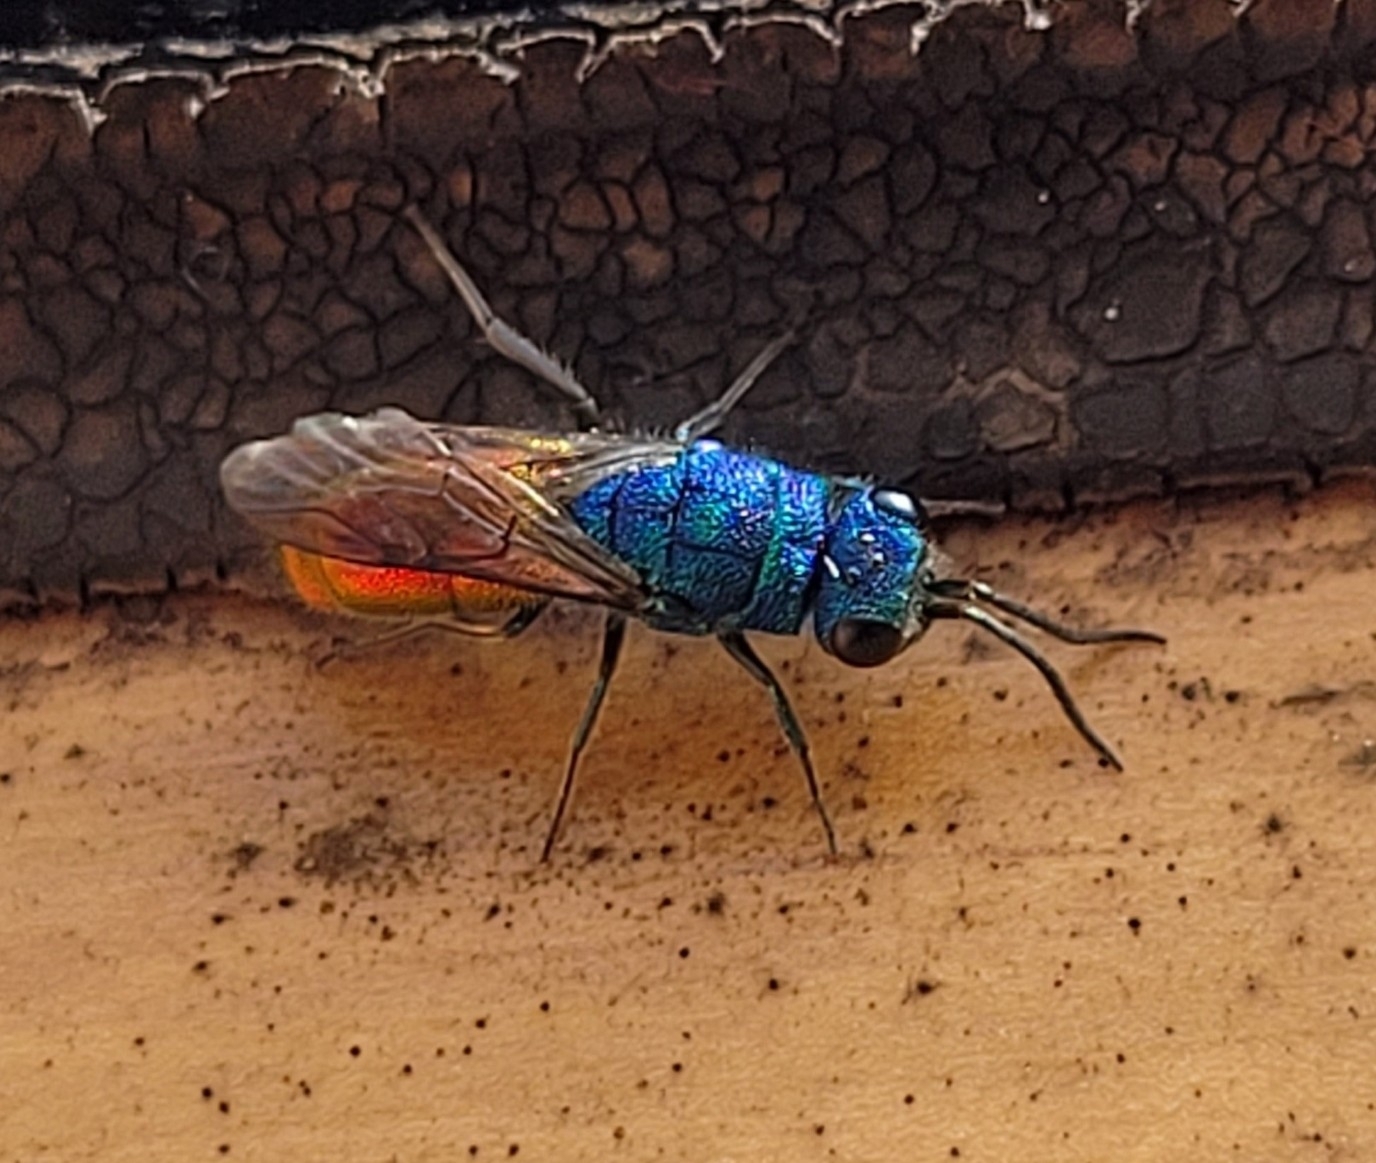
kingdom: Animalia
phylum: Arthropoda
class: Insecta
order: Hymenoptera
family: Chrysididae
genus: Chrysis
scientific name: Chrysis terminata
